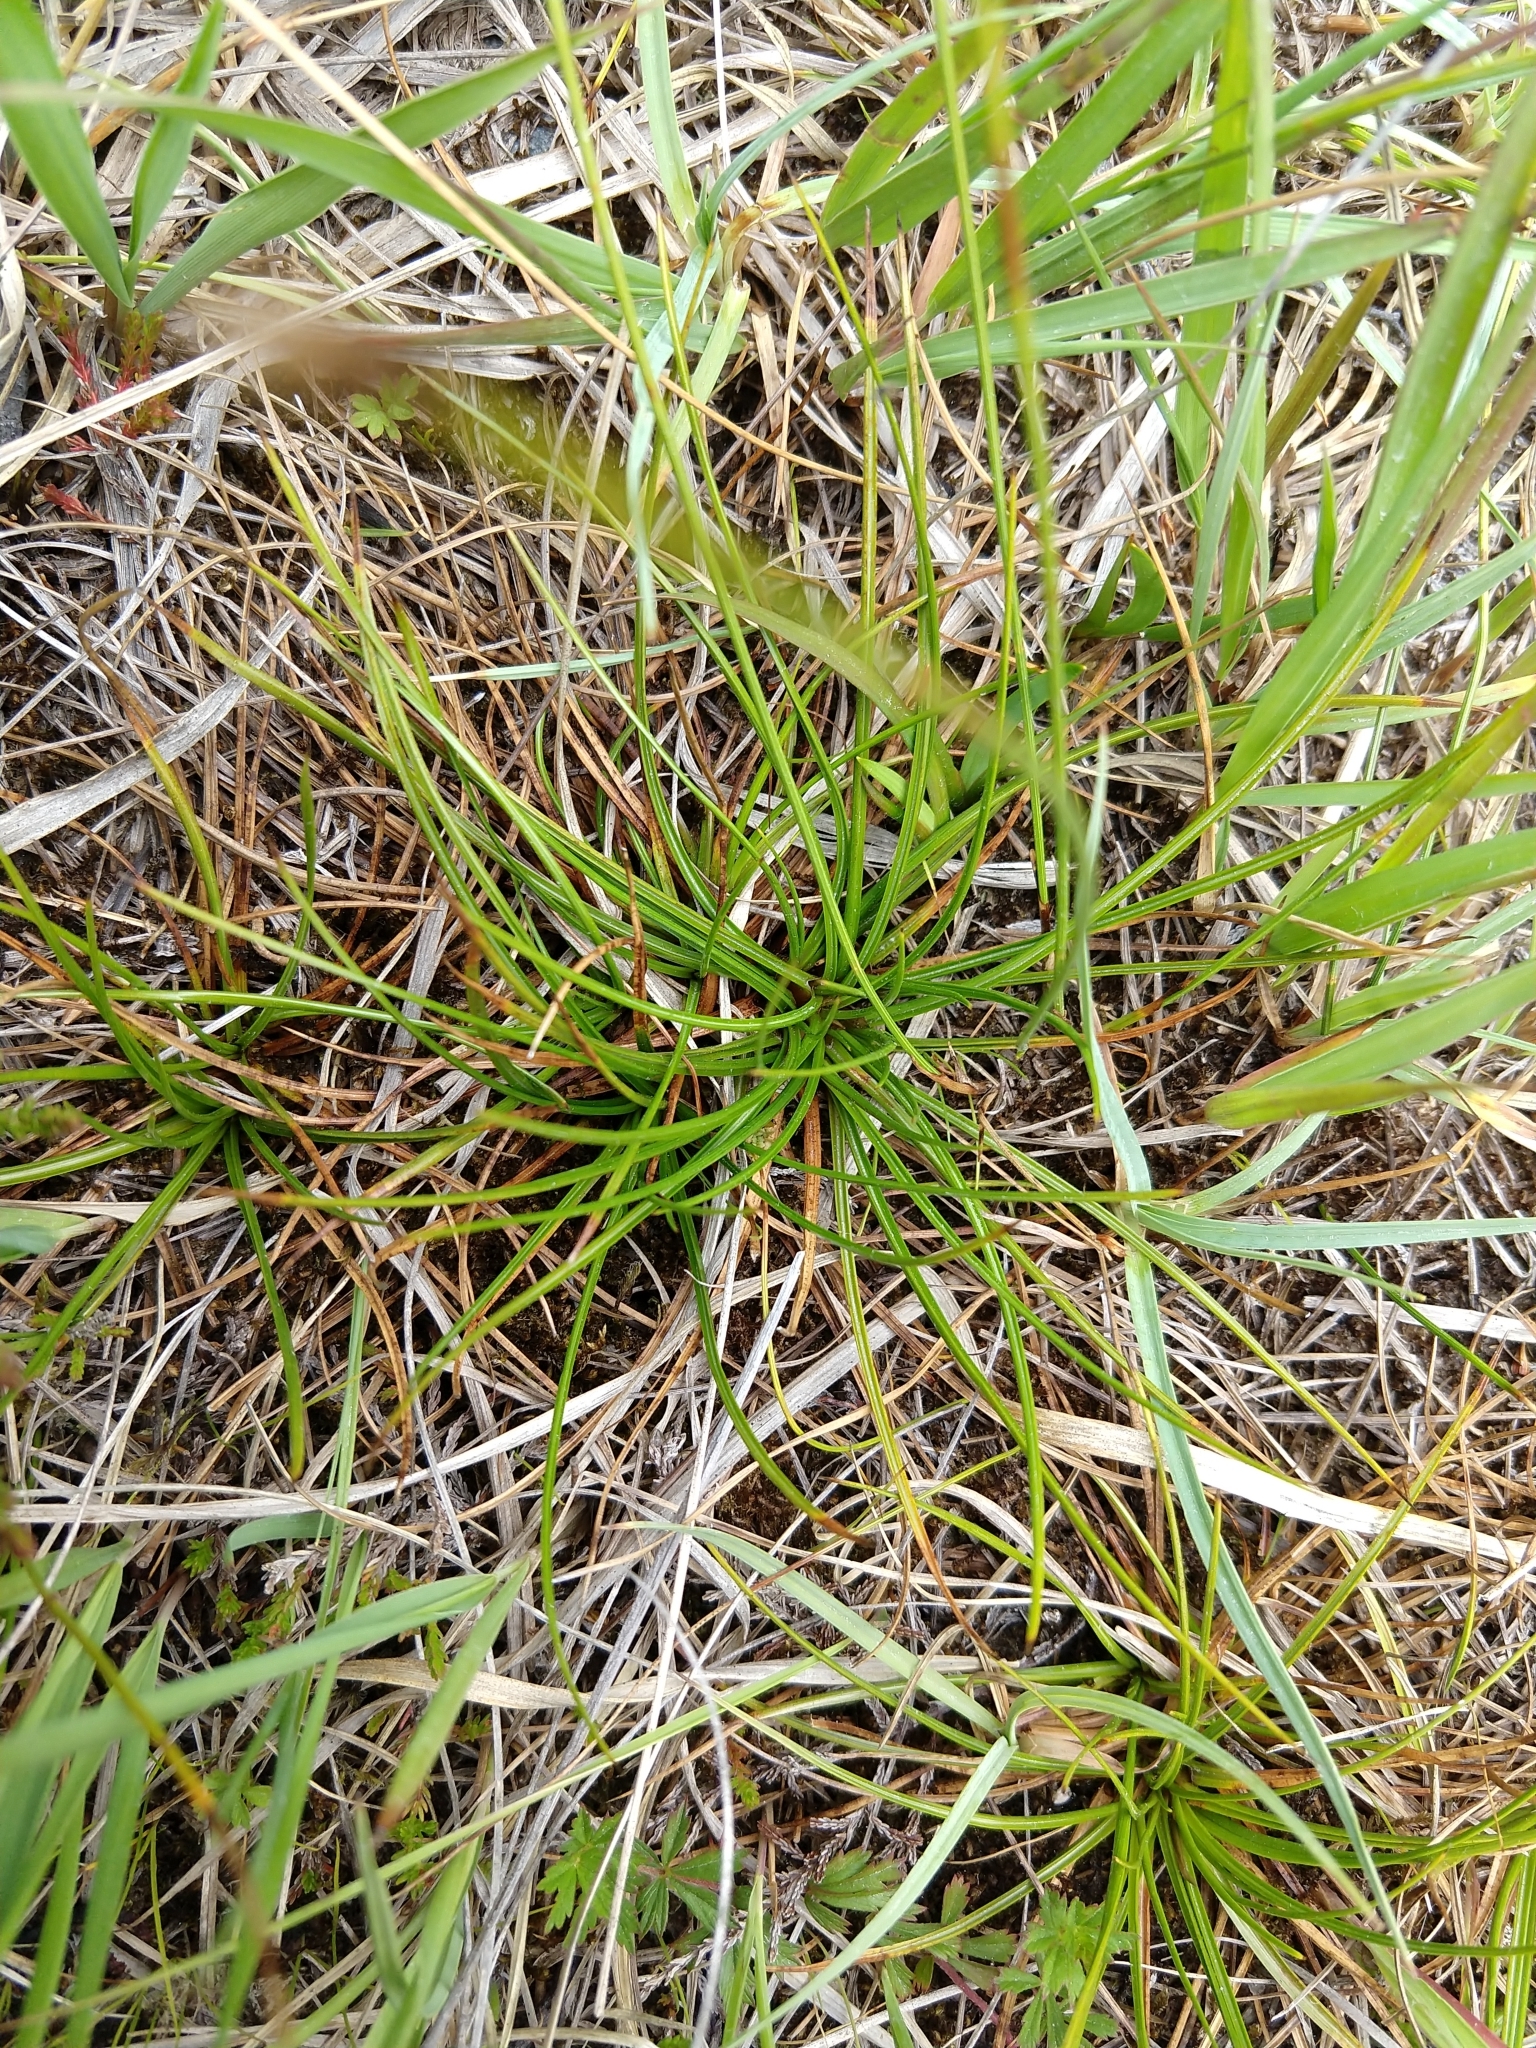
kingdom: Plantae
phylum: Tracheophyta
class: Liliopsida
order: Poales
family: Juncaceae
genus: Juncus
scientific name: Juncus squarrosus
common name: Heath rush
